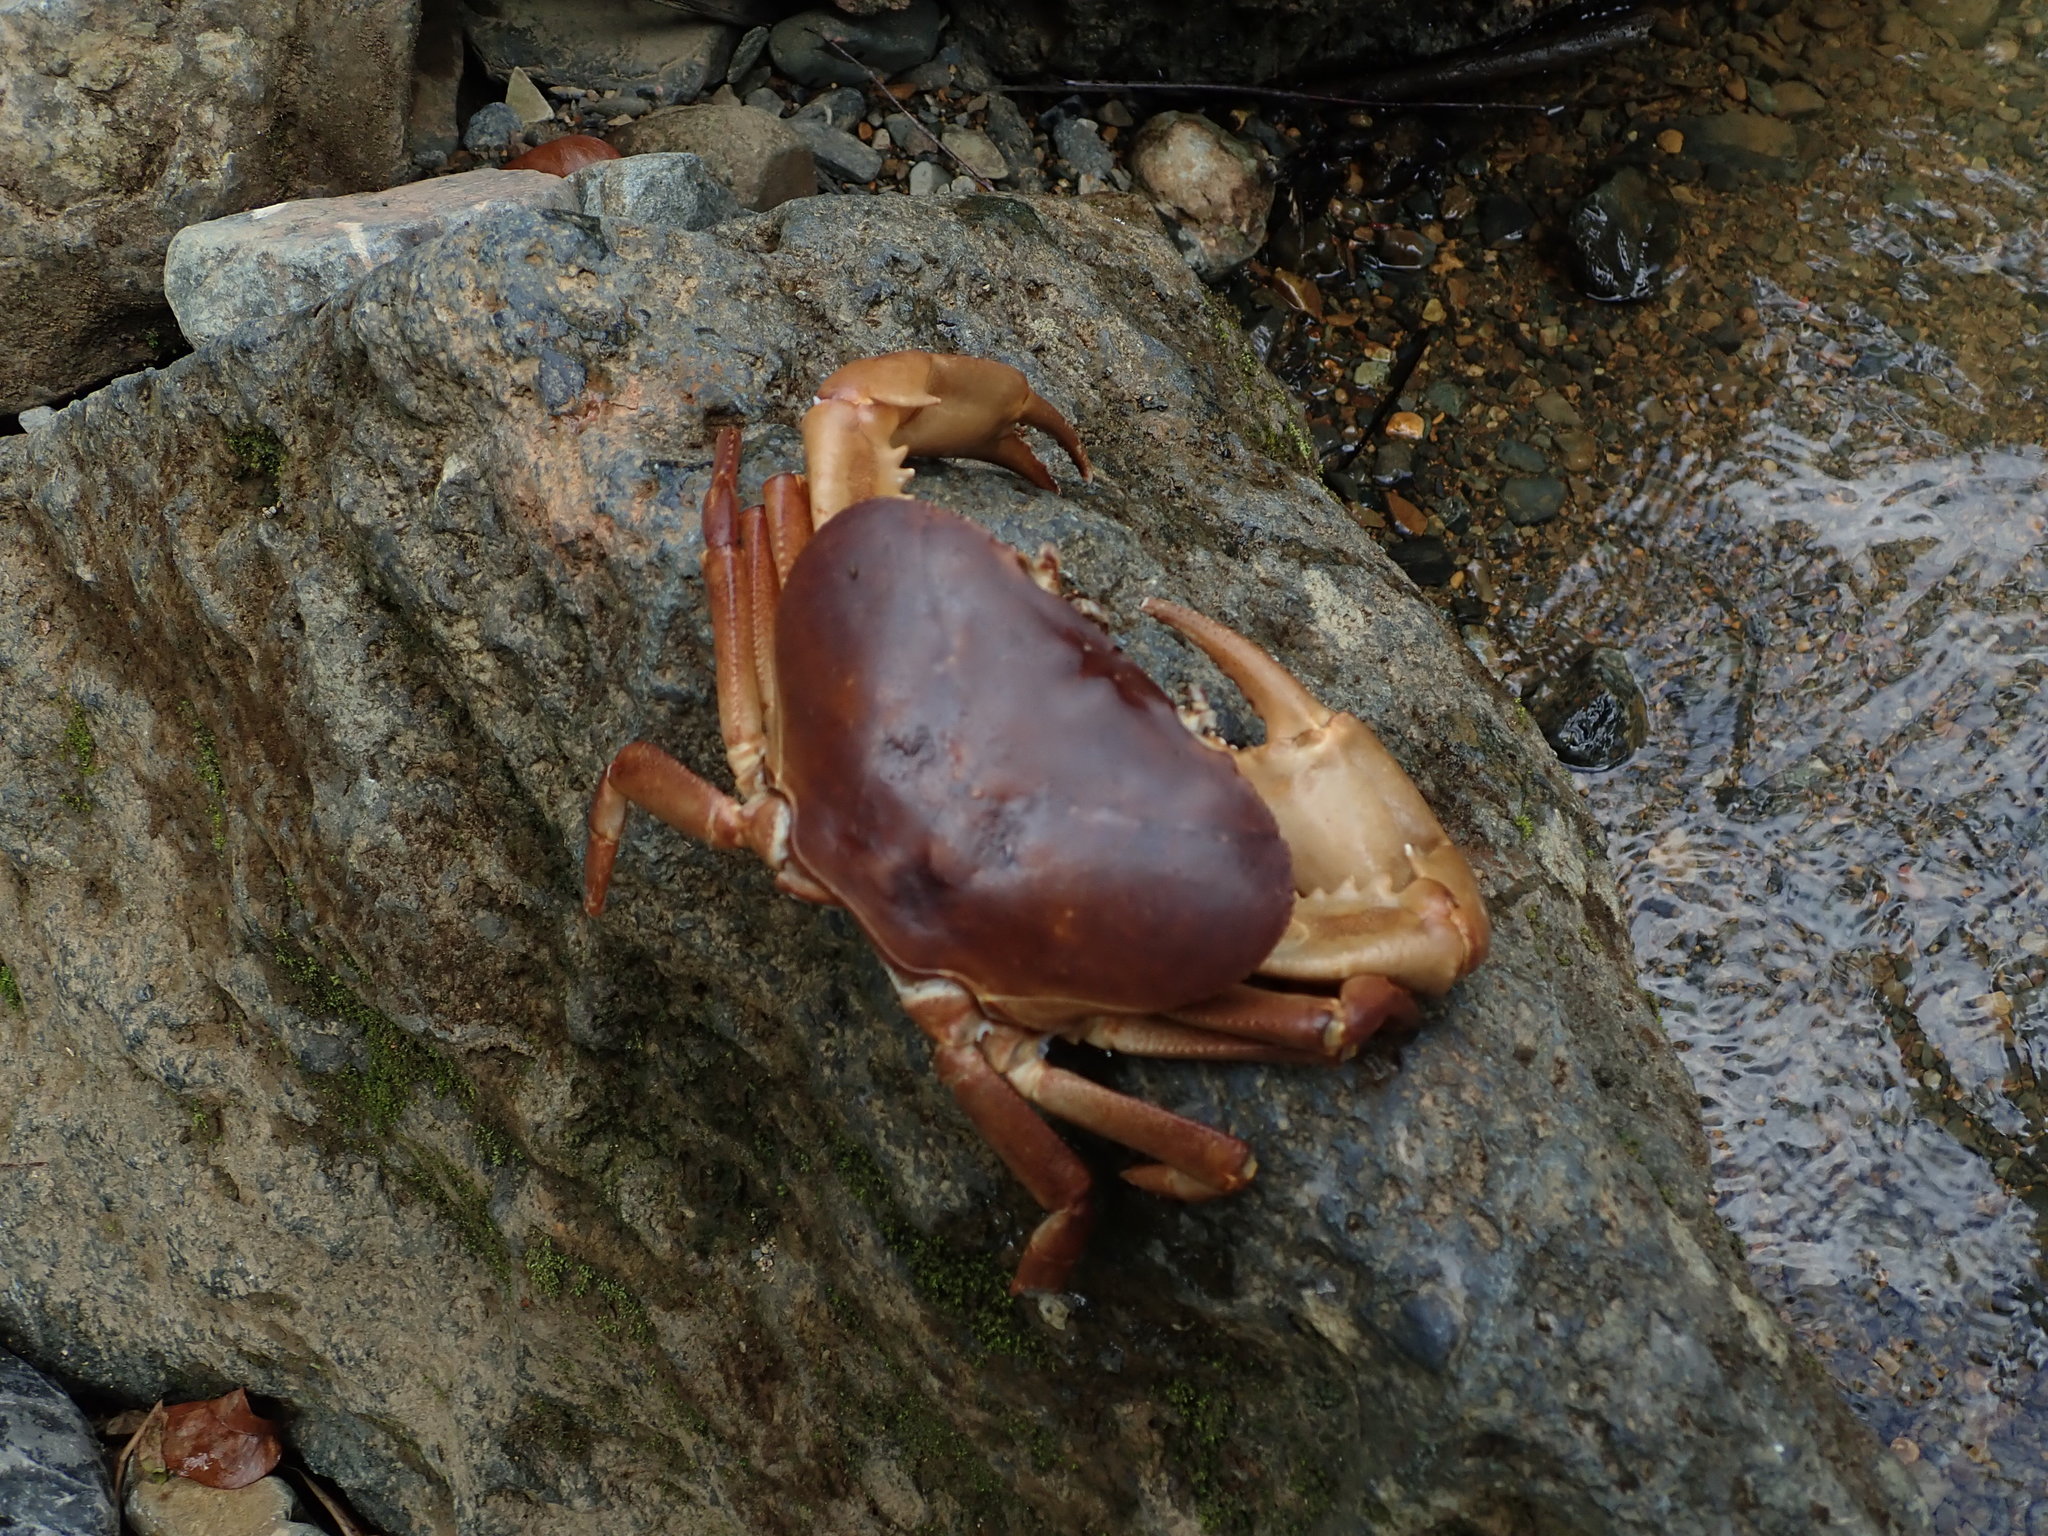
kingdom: Animalia
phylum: Arthropoda
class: Malacostraca
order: Decapoda
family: Epiloboceridae
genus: Epilobocera
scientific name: Epilobocera sinuatifrons
